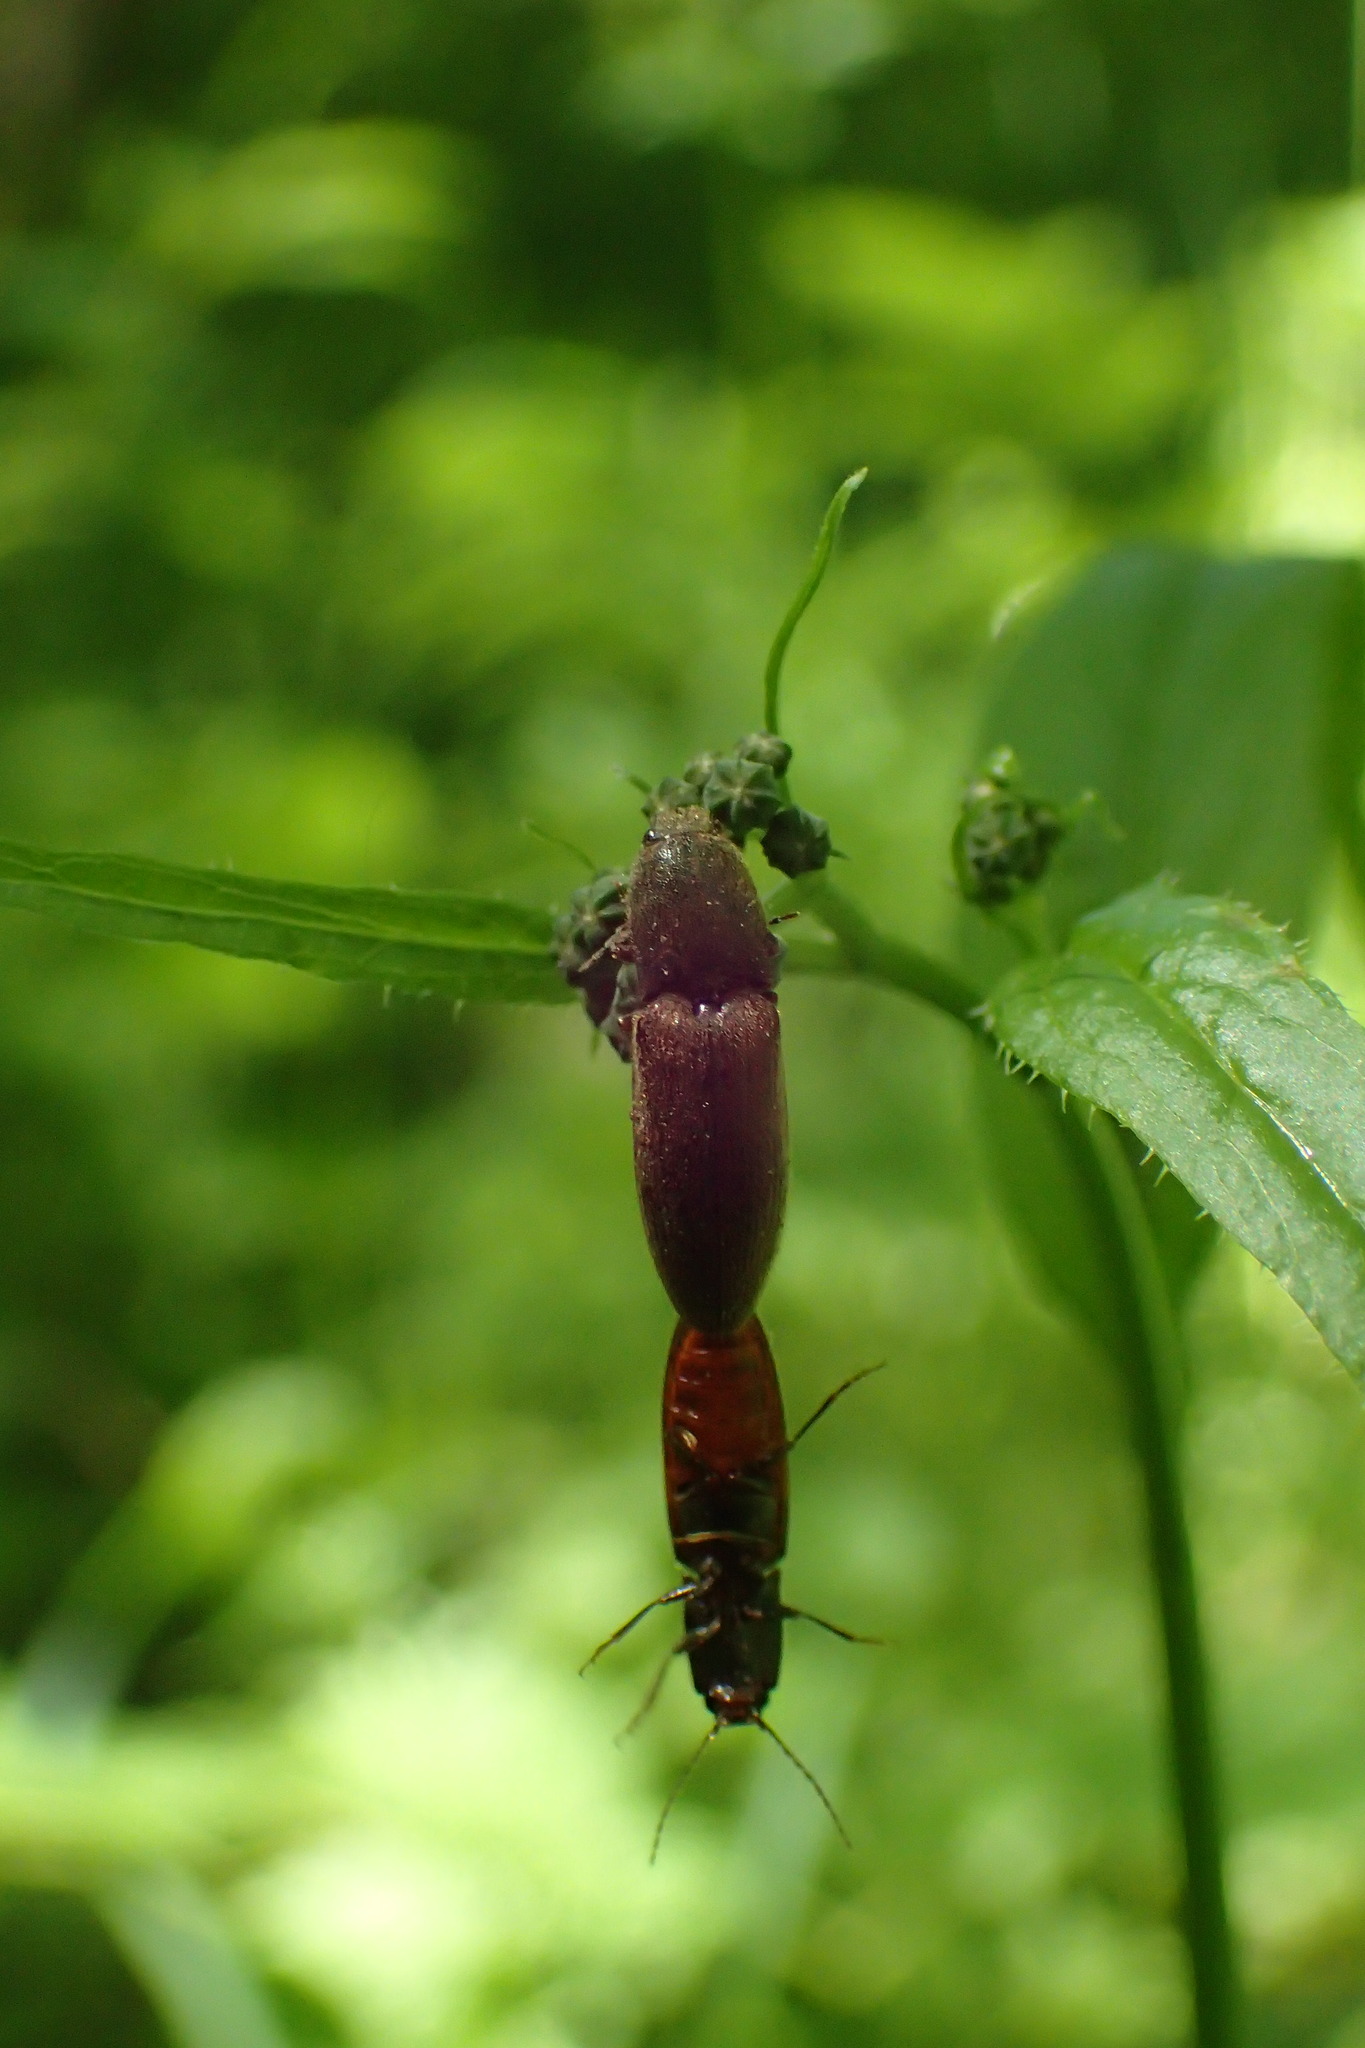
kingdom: Animalia
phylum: Arthropoda
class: Insecta
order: Coleoptera
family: Elateridae
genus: Athous
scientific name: Athous haemorrhoidalis
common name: Red-brown click beetle
